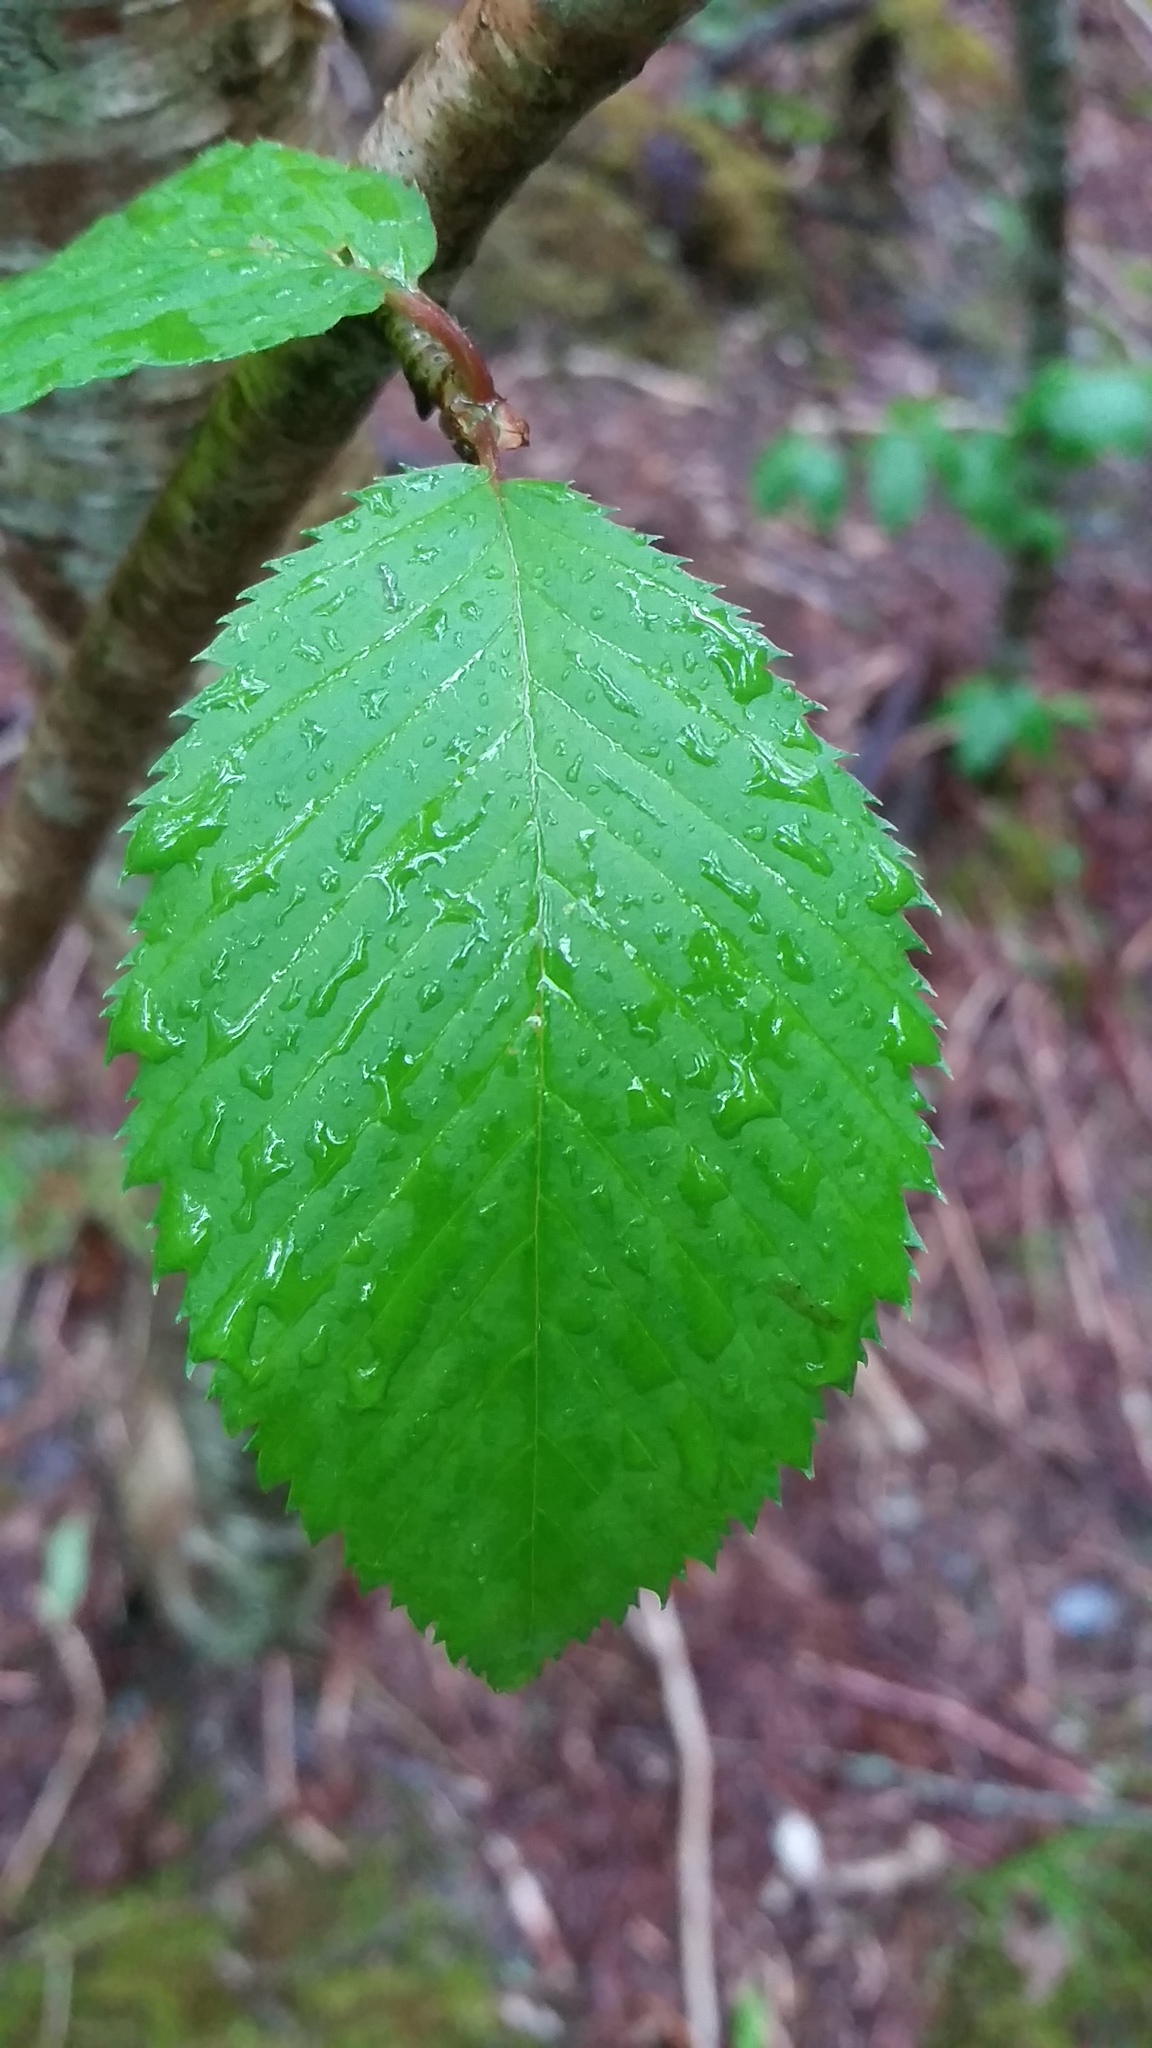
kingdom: Plantae
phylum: Tracheophyta
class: Magnoliopsida
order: Fagales
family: Betulaceae
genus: Betula
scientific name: Betula alleghaniensis
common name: Yellow birch
